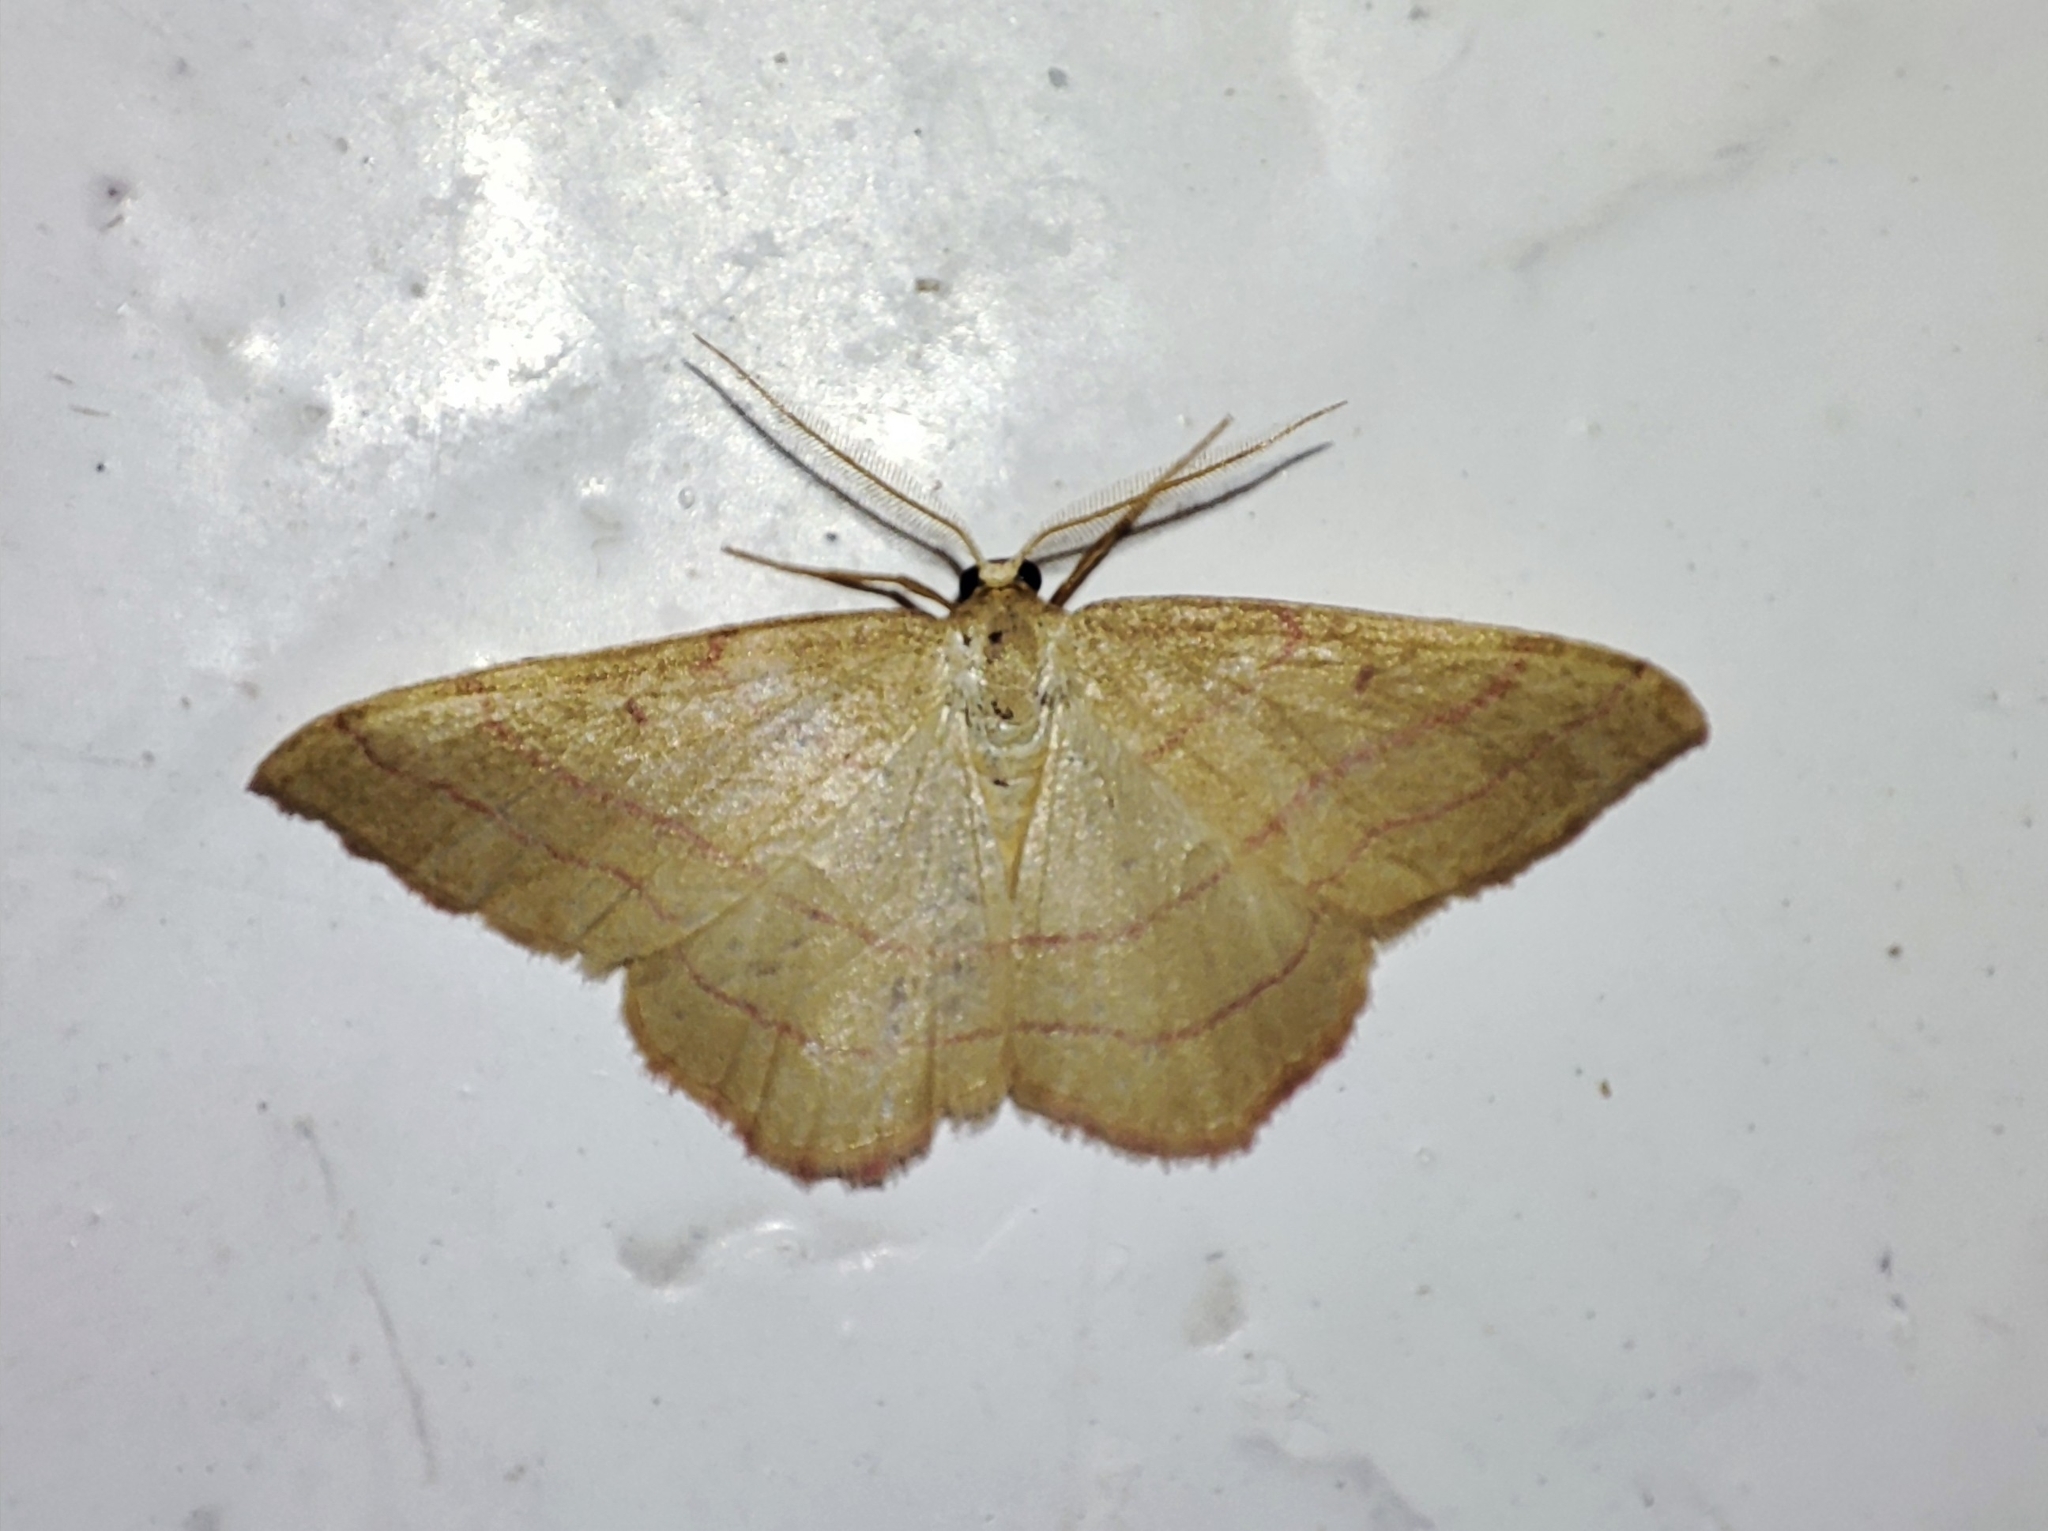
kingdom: Animalia
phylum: Arthropoda
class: Insecta
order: Lepidoptera
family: Geometridae
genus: Rhodostrophia
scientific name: Rhodostrophia vibicaria
